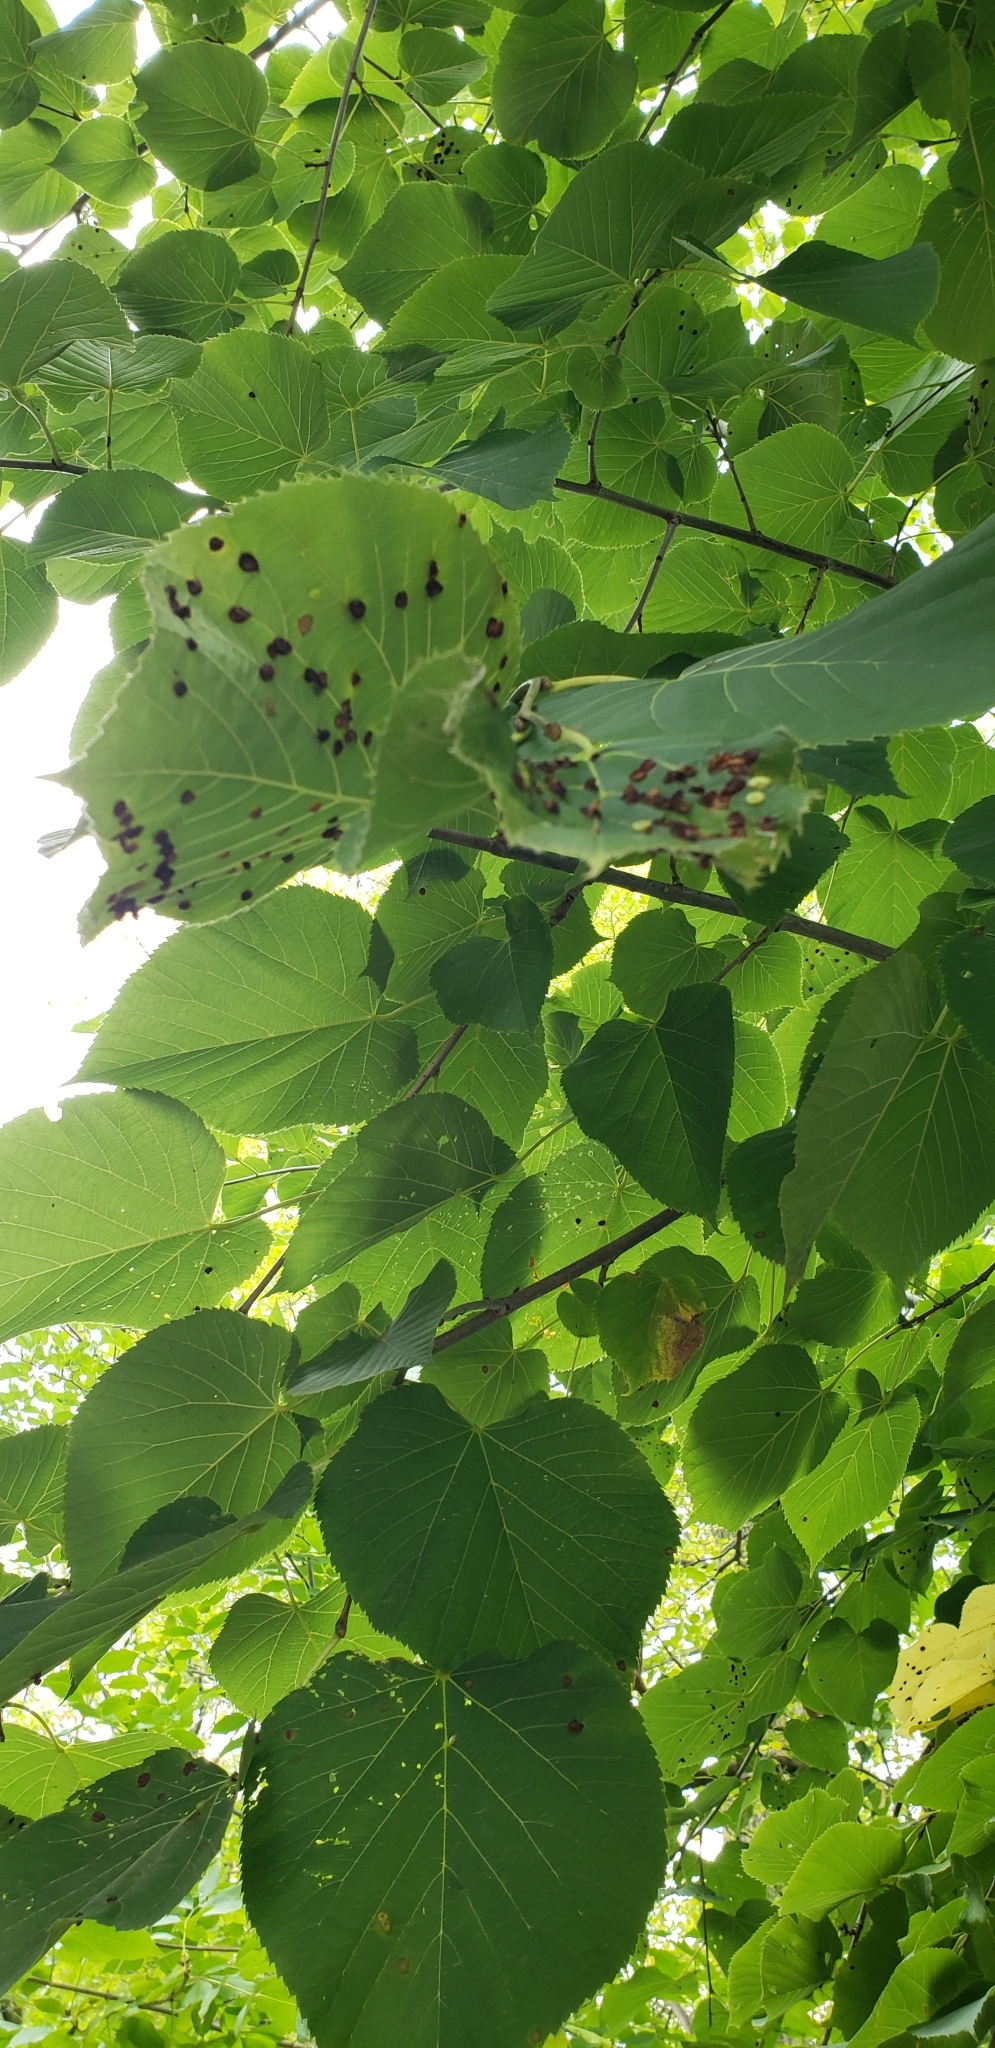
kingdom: Animalia
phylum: Arthropoda
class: Insecta
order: Diptera
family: Cecidomyiidae
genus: Contarinia
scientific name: Contarinia verrucicola
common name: Linden wart gall midge
